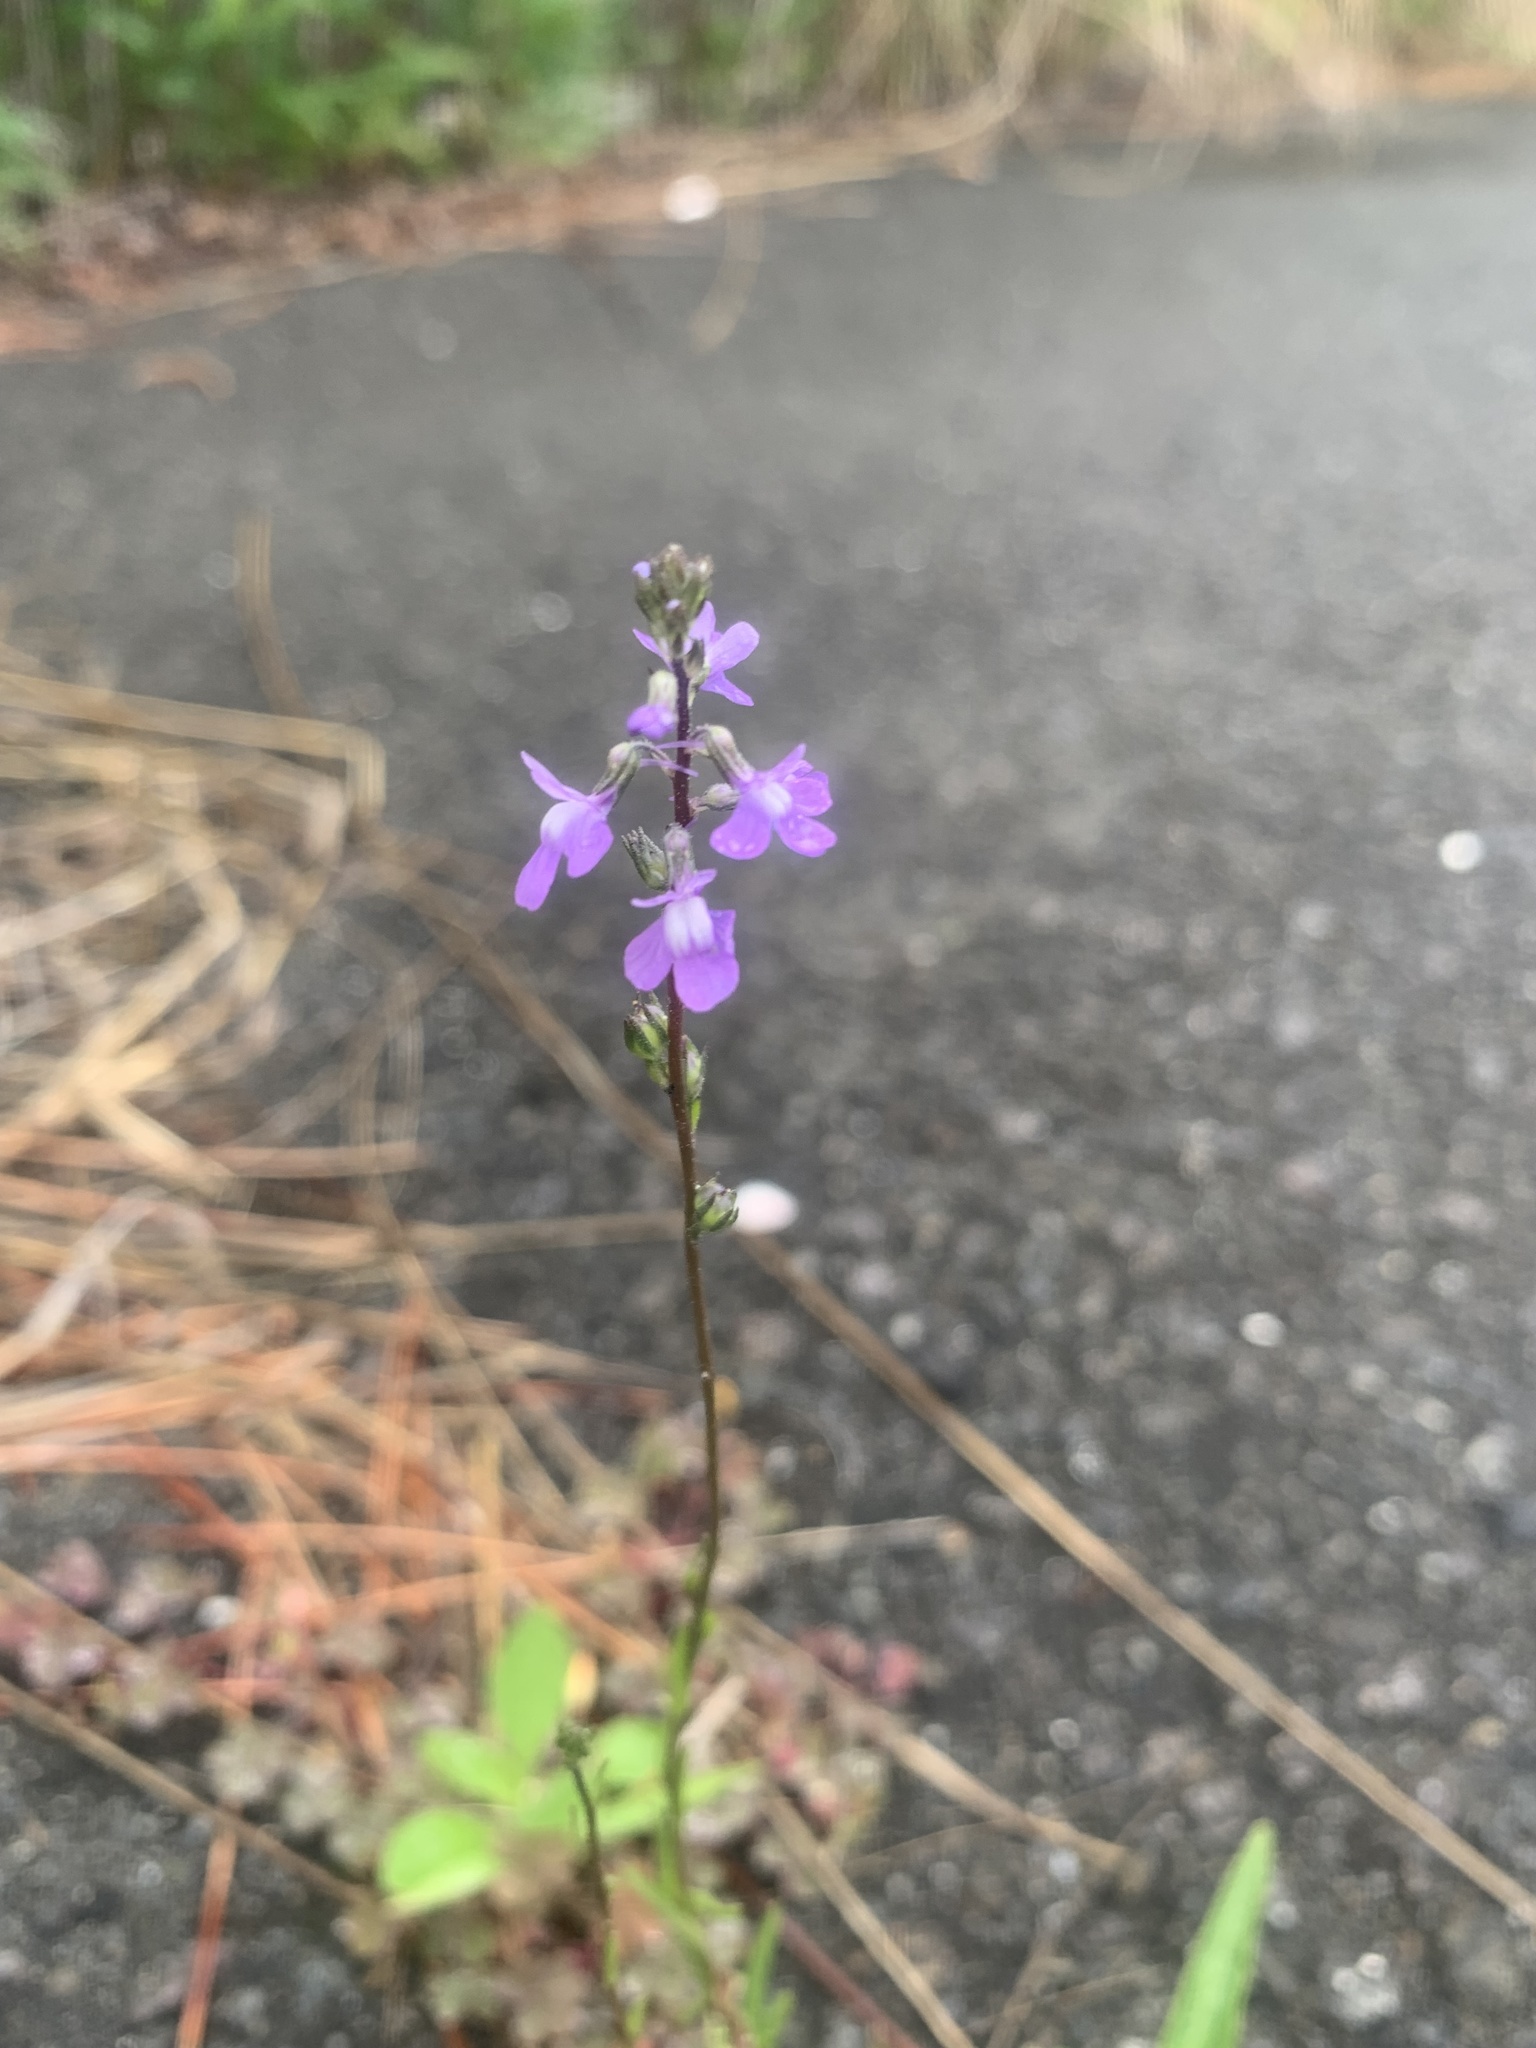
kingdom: Plantae
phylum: Tracheophyta
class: Magnoliopsida
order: Lamiales
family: Plantaginaceae
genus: Nuttallanthus
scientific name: Nuttallanthus canadensis
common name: Blue toadflax
